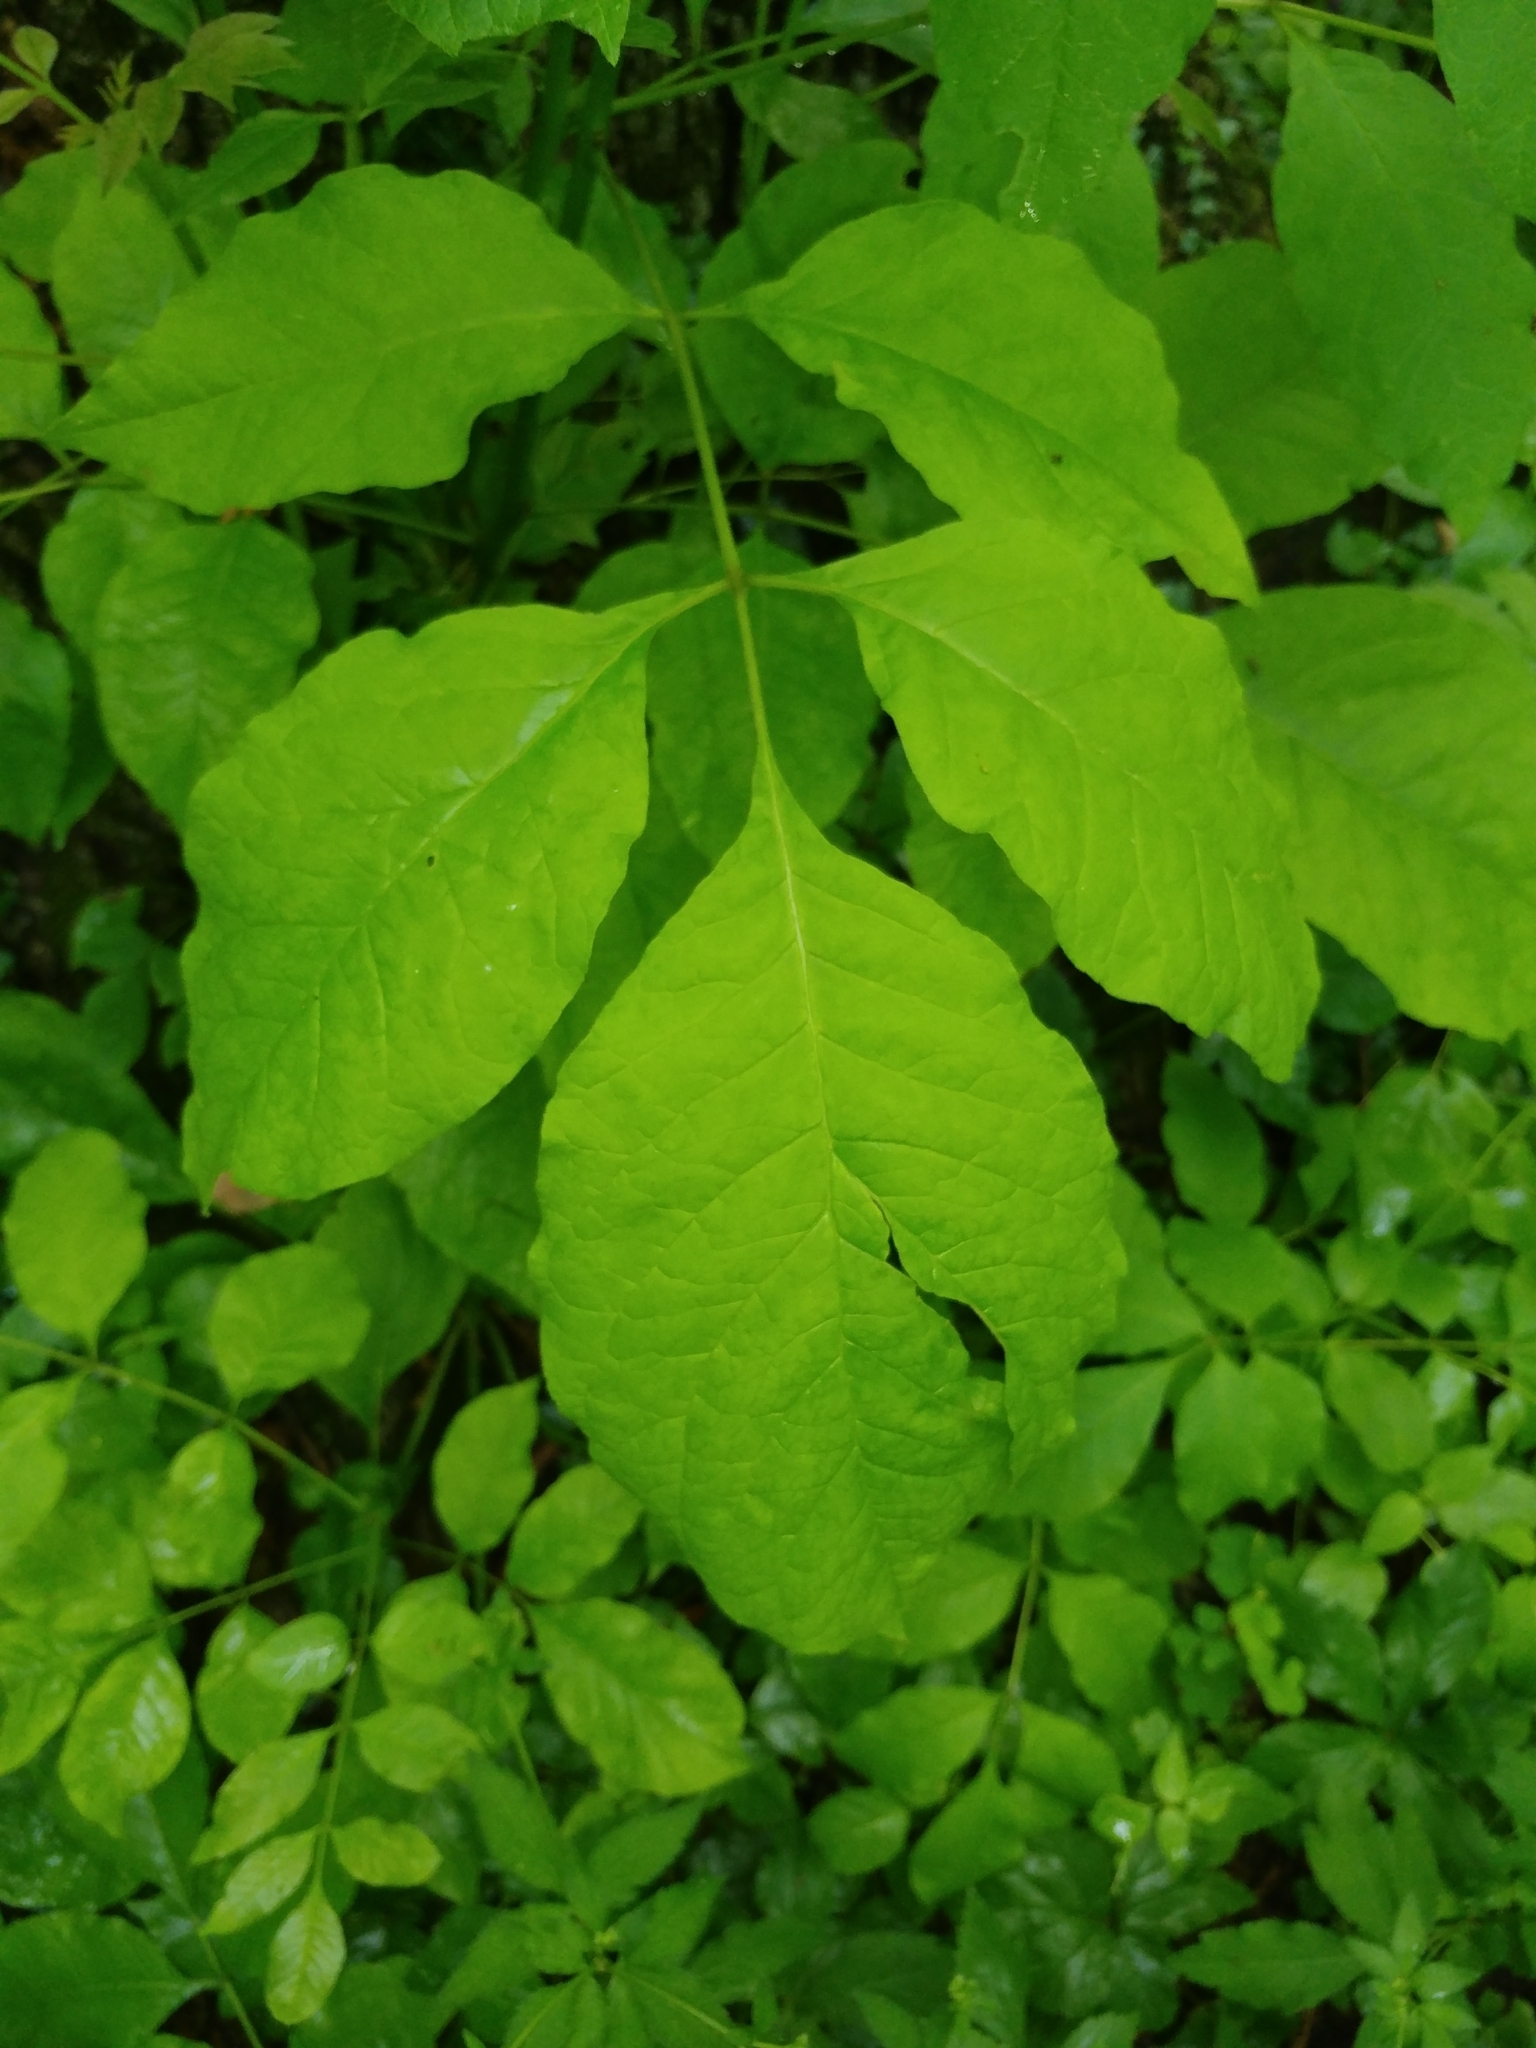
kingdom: Plantae
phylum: Tracheophyta
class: Magnoliopsida
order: Lamiales
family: Oleaceae
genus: Fraxinus
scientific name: Fraxinus pennsylvanica
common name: Green ash
